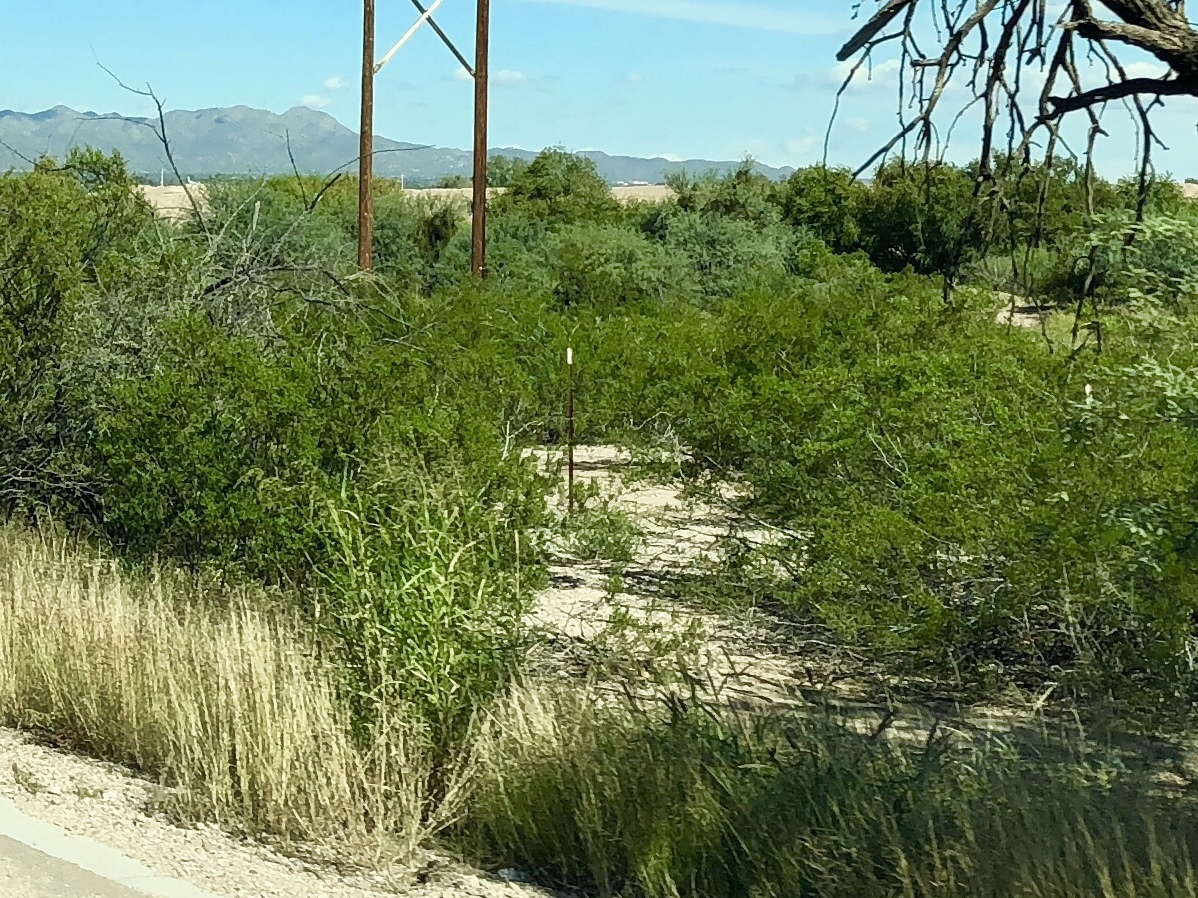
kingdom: Plantae
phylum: Tracheophyta
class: Magnoliopsida
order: Zygophyllales
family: Zygophyllaceae
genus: Larrea
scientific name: Larrea tridentata
